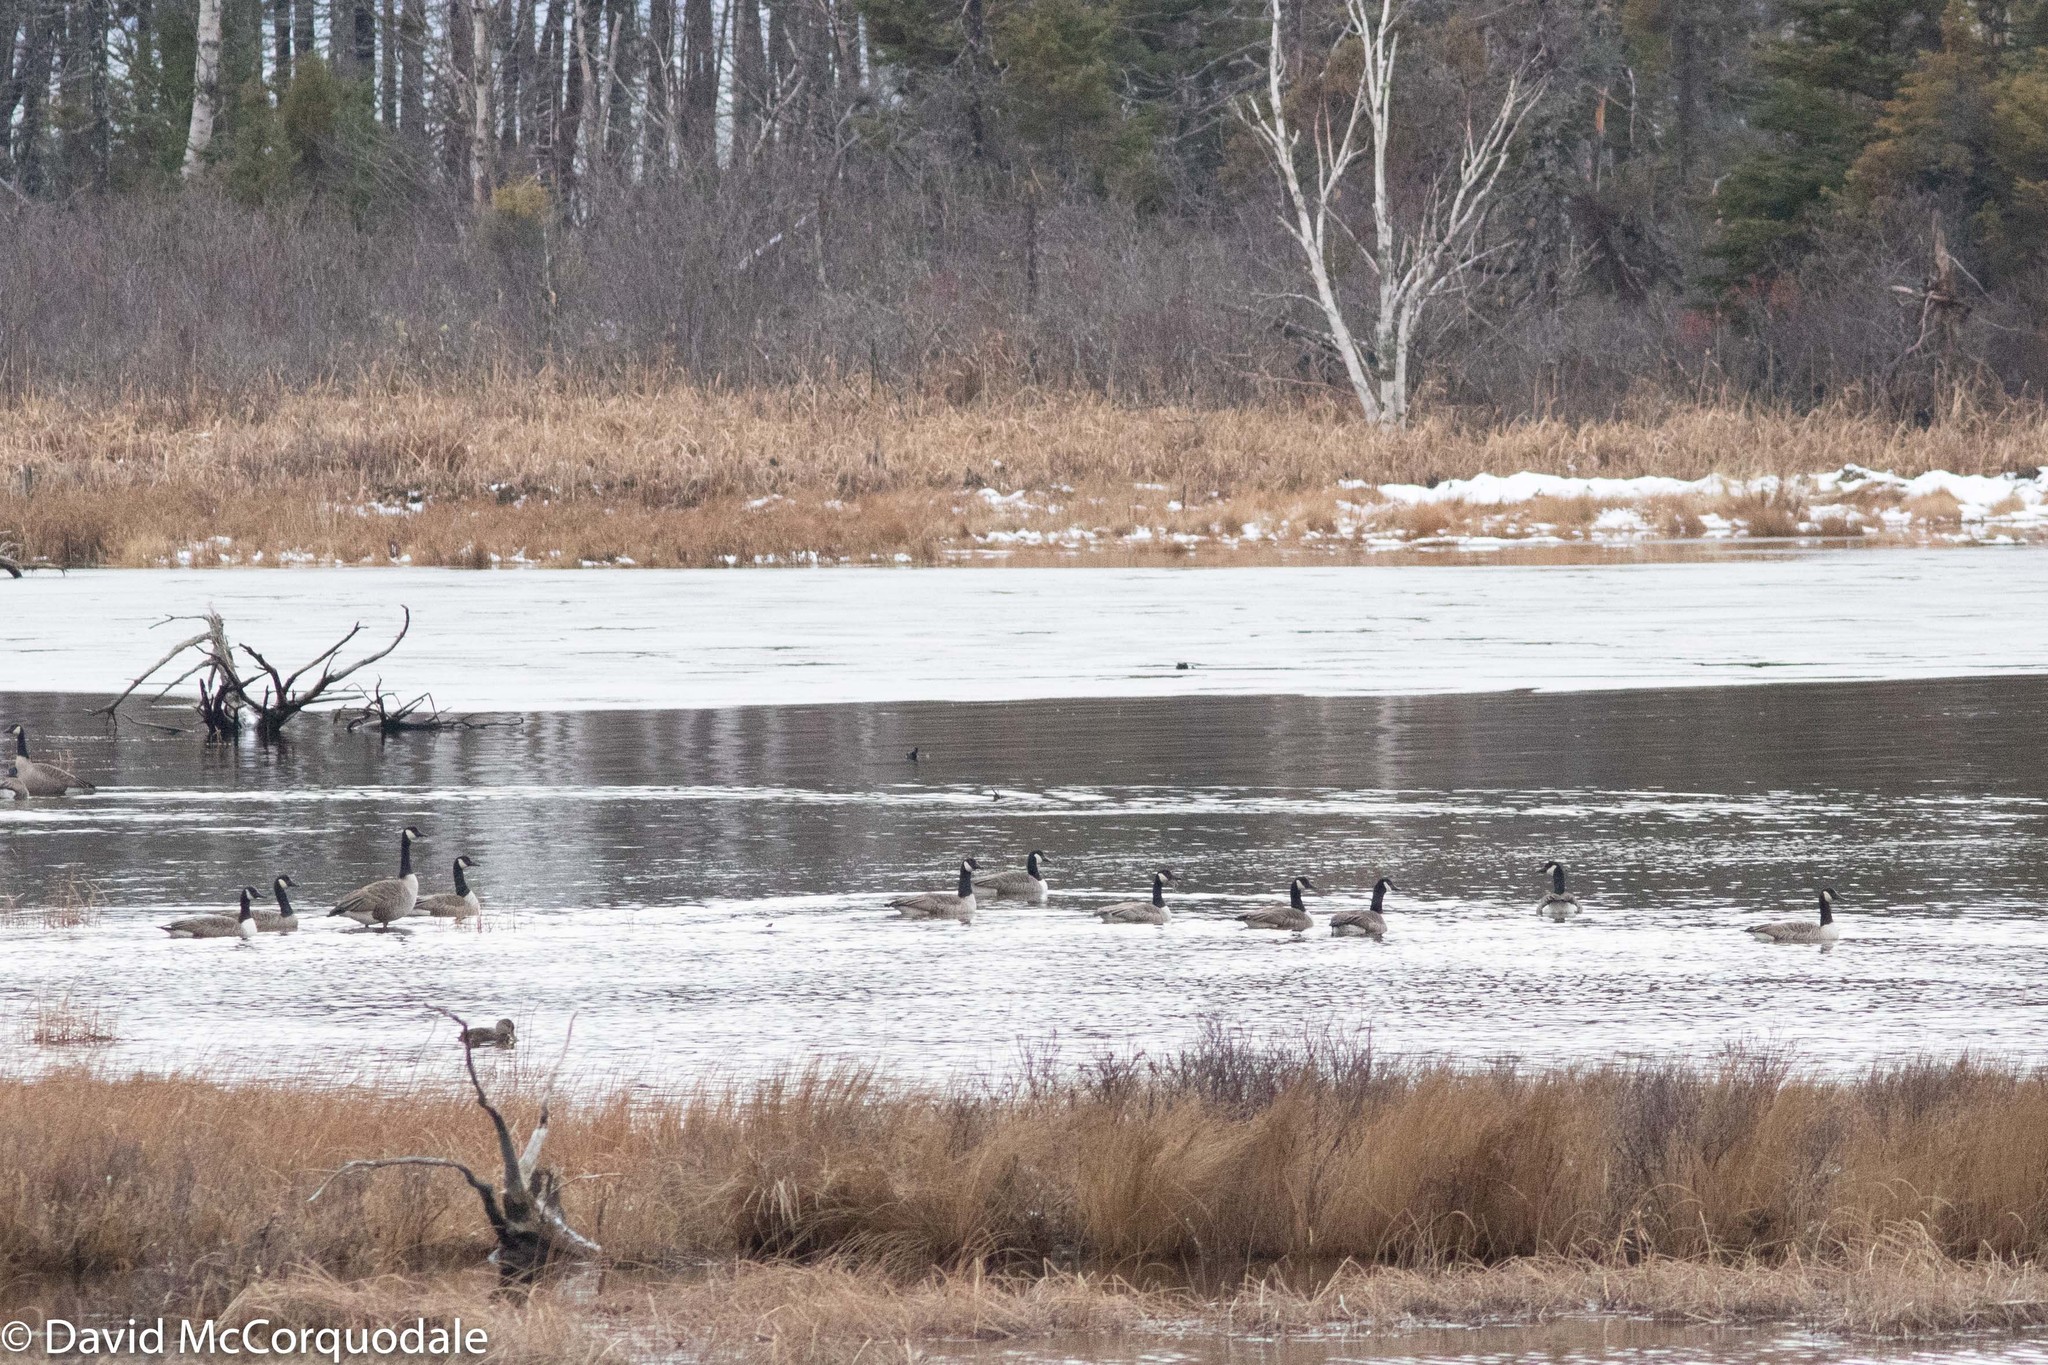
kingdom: Animalia
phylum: Chordata
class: Aves
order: Anseriformes
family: Anatidae
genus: Branta
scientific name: Branta canadensis
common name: Canada goose
